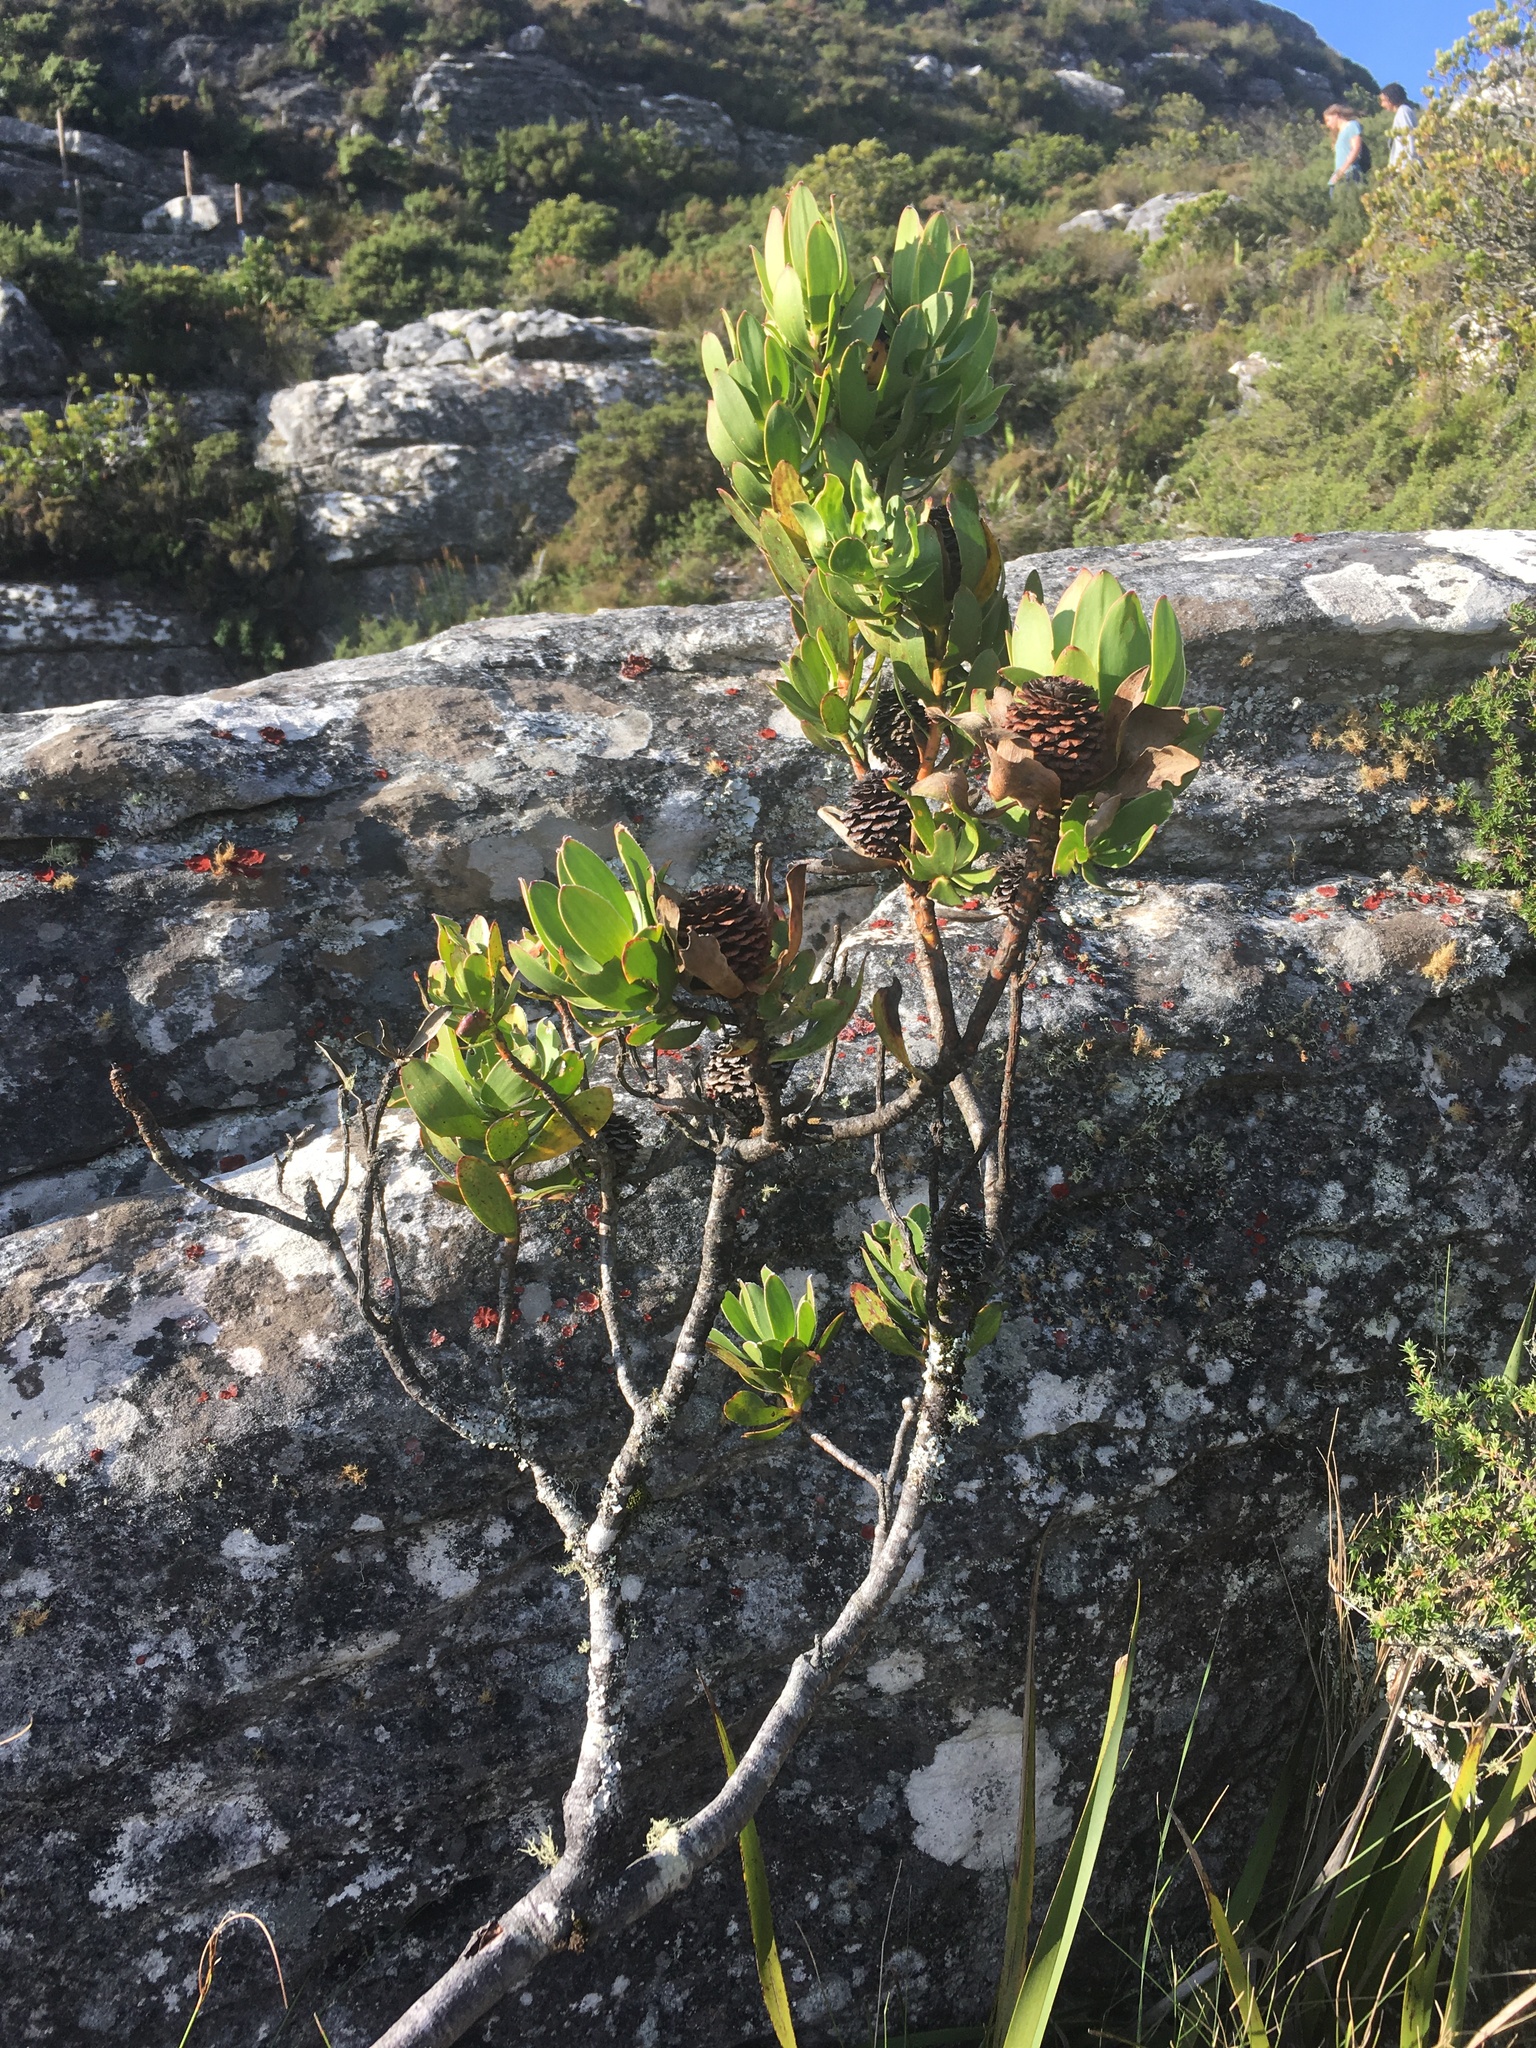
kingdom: Plantae
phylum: Tracheophyta
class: Magnoliopsida
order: Proteales
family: Proteaceae
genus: Leucadendron
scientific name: Leucadendron strobilinum
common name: Mountain rose
